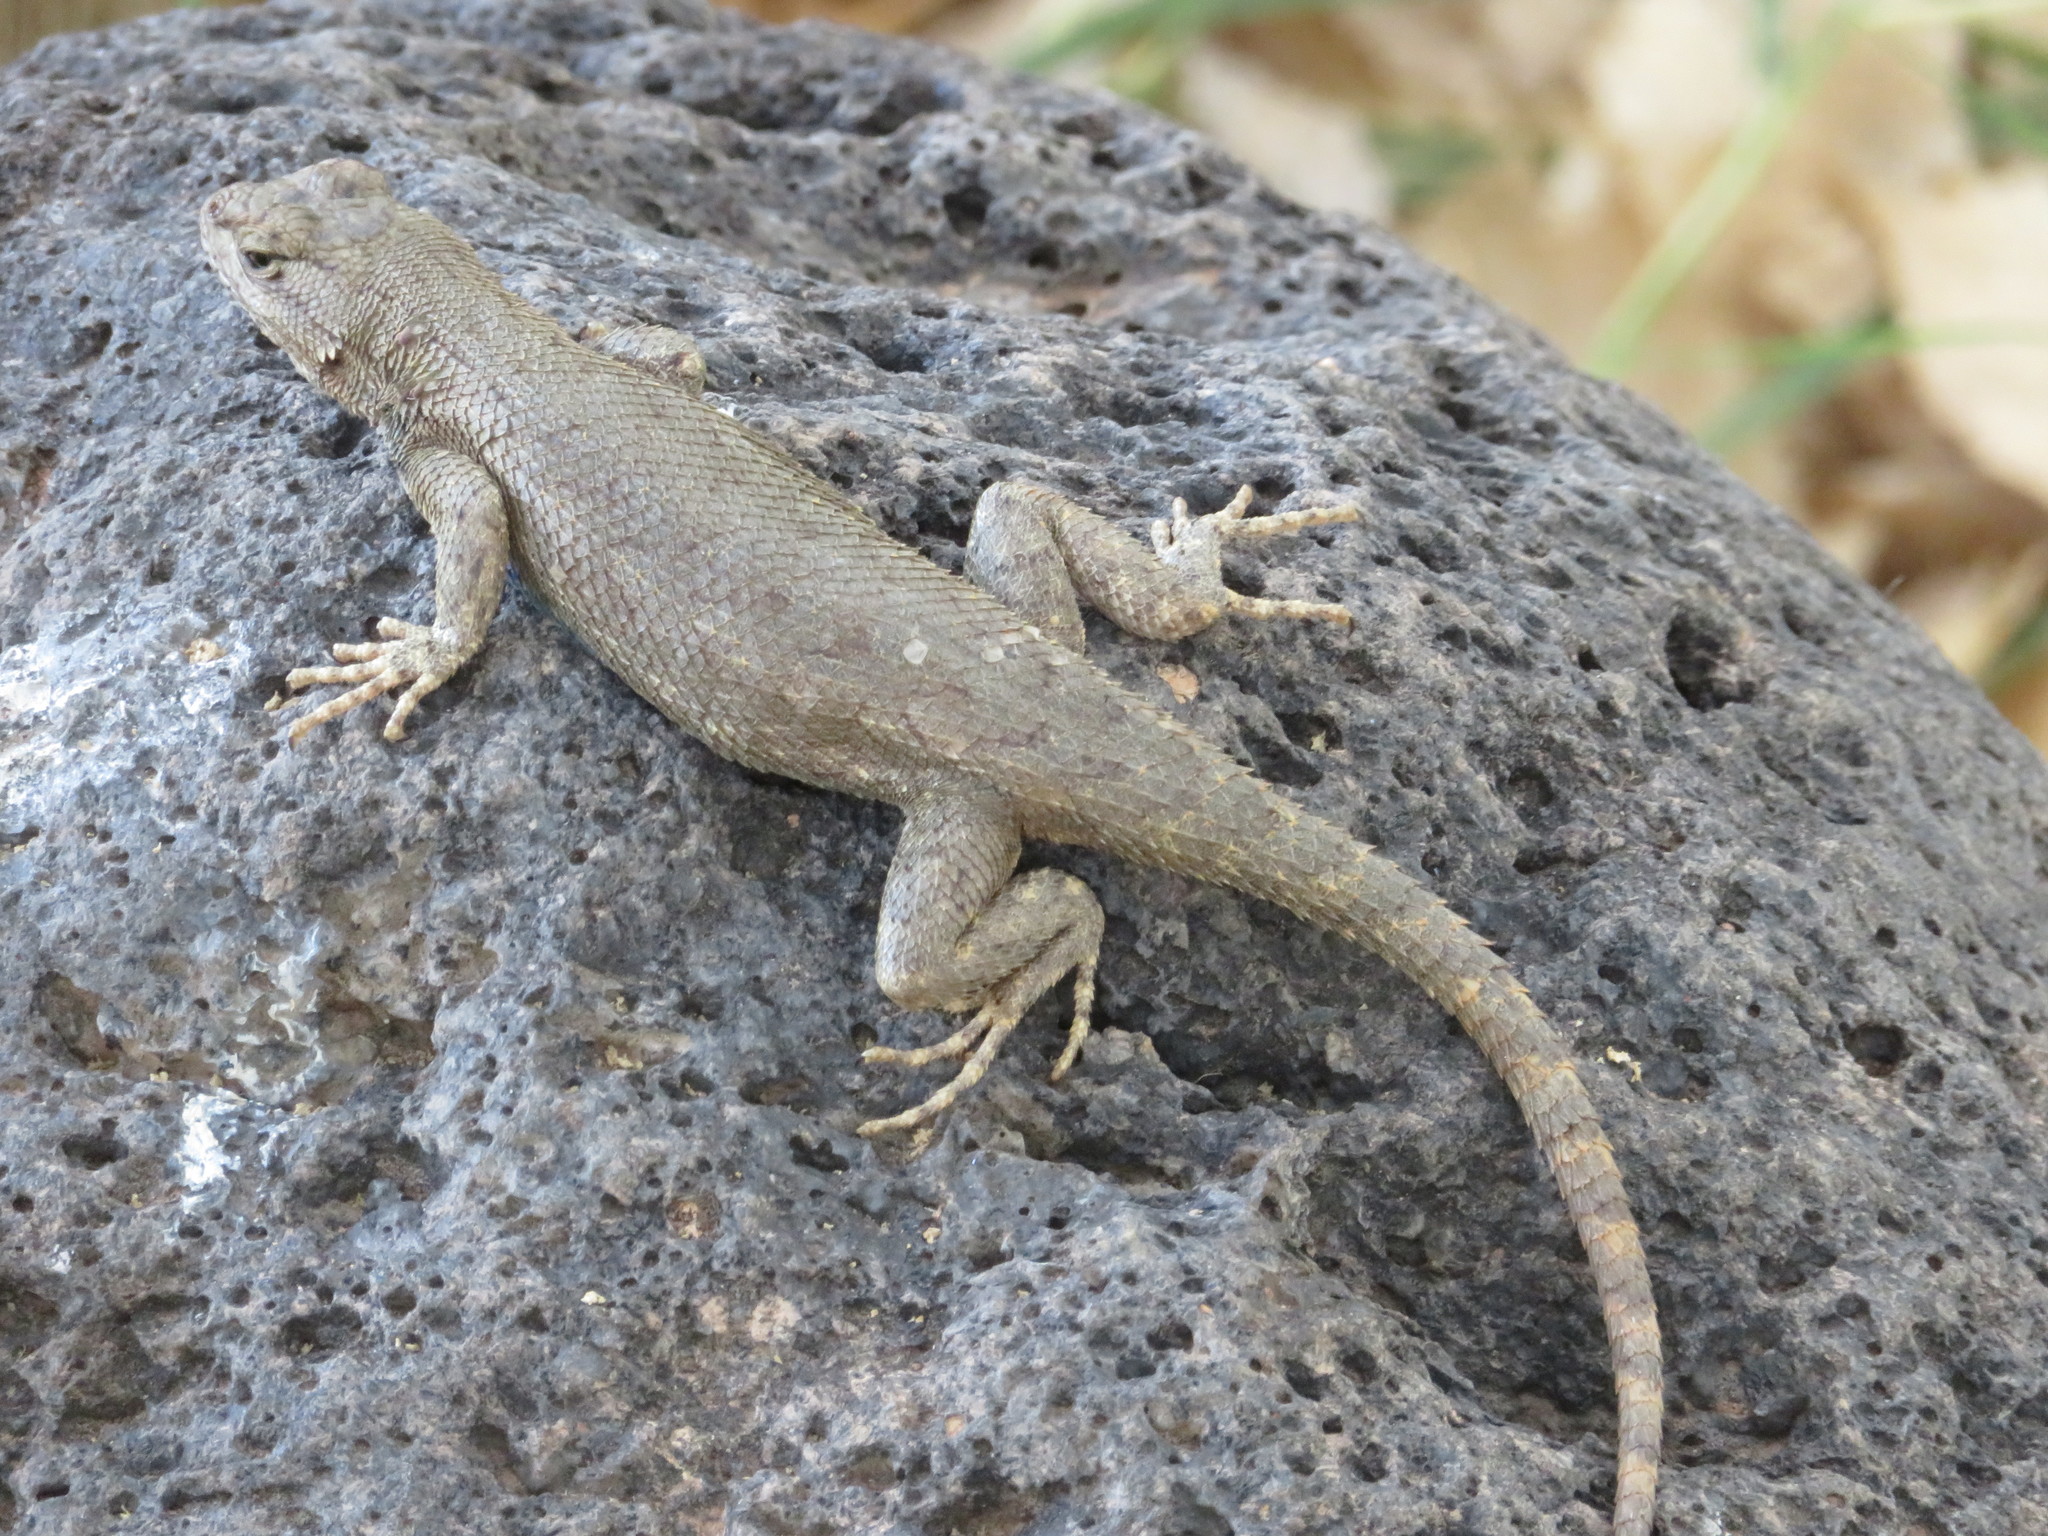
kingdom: Animalia
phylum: Chordata
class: Squamata
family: Phrynosomatidae
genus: Sceloporus
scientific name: Sceloporus tristichus
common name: Plateau fence lizard
